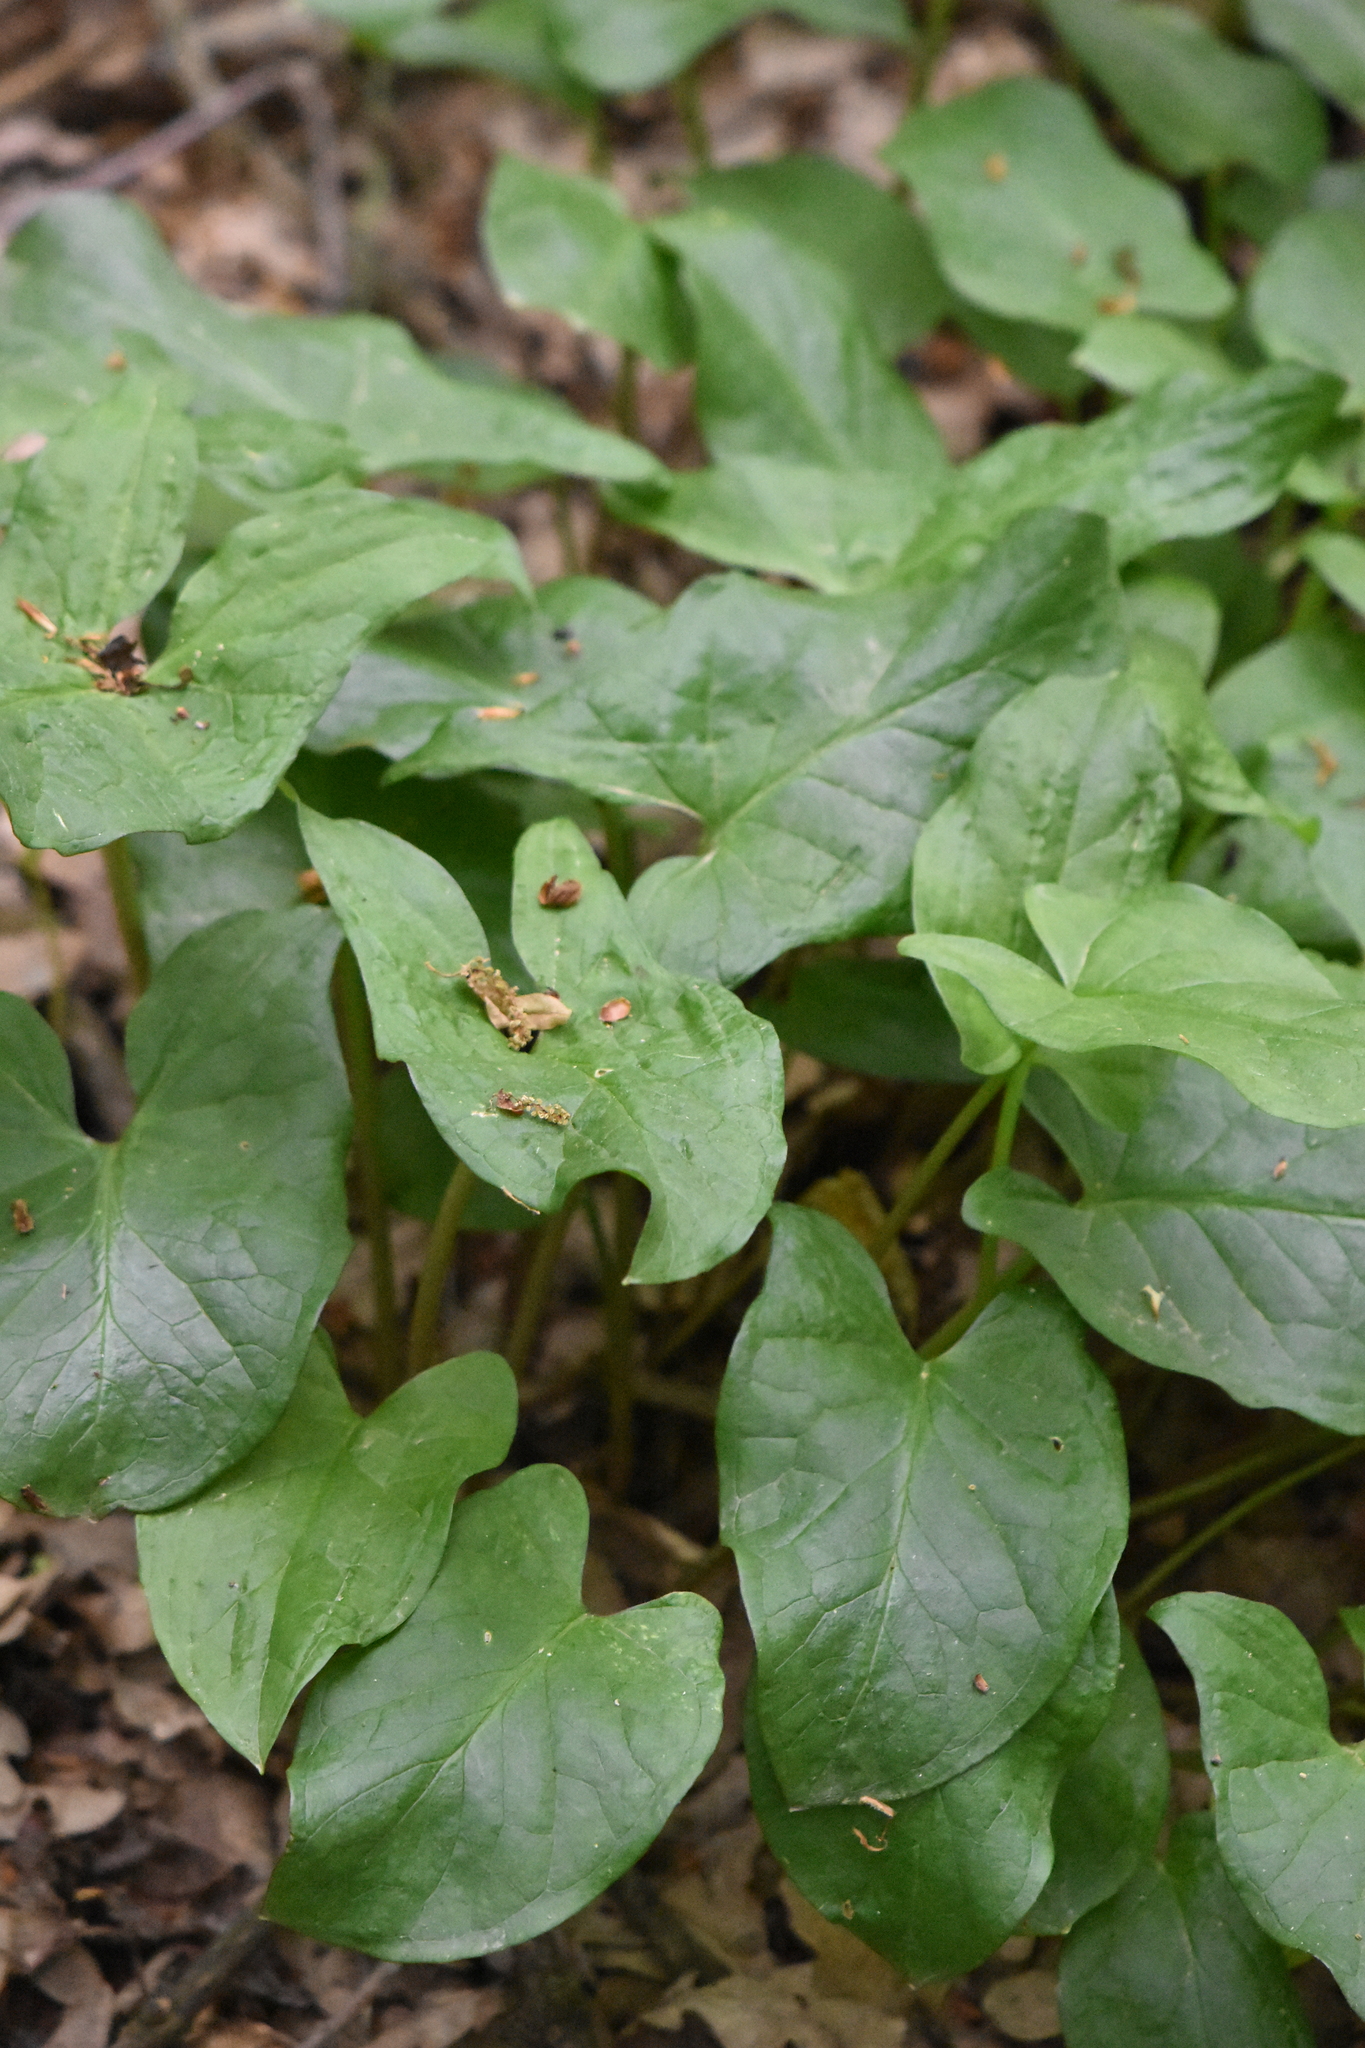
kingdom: Plantae
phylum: Tracheophyta
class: Liliopsida
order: Alismatales
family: Araceae
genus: Arum
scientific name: Arum orientale
